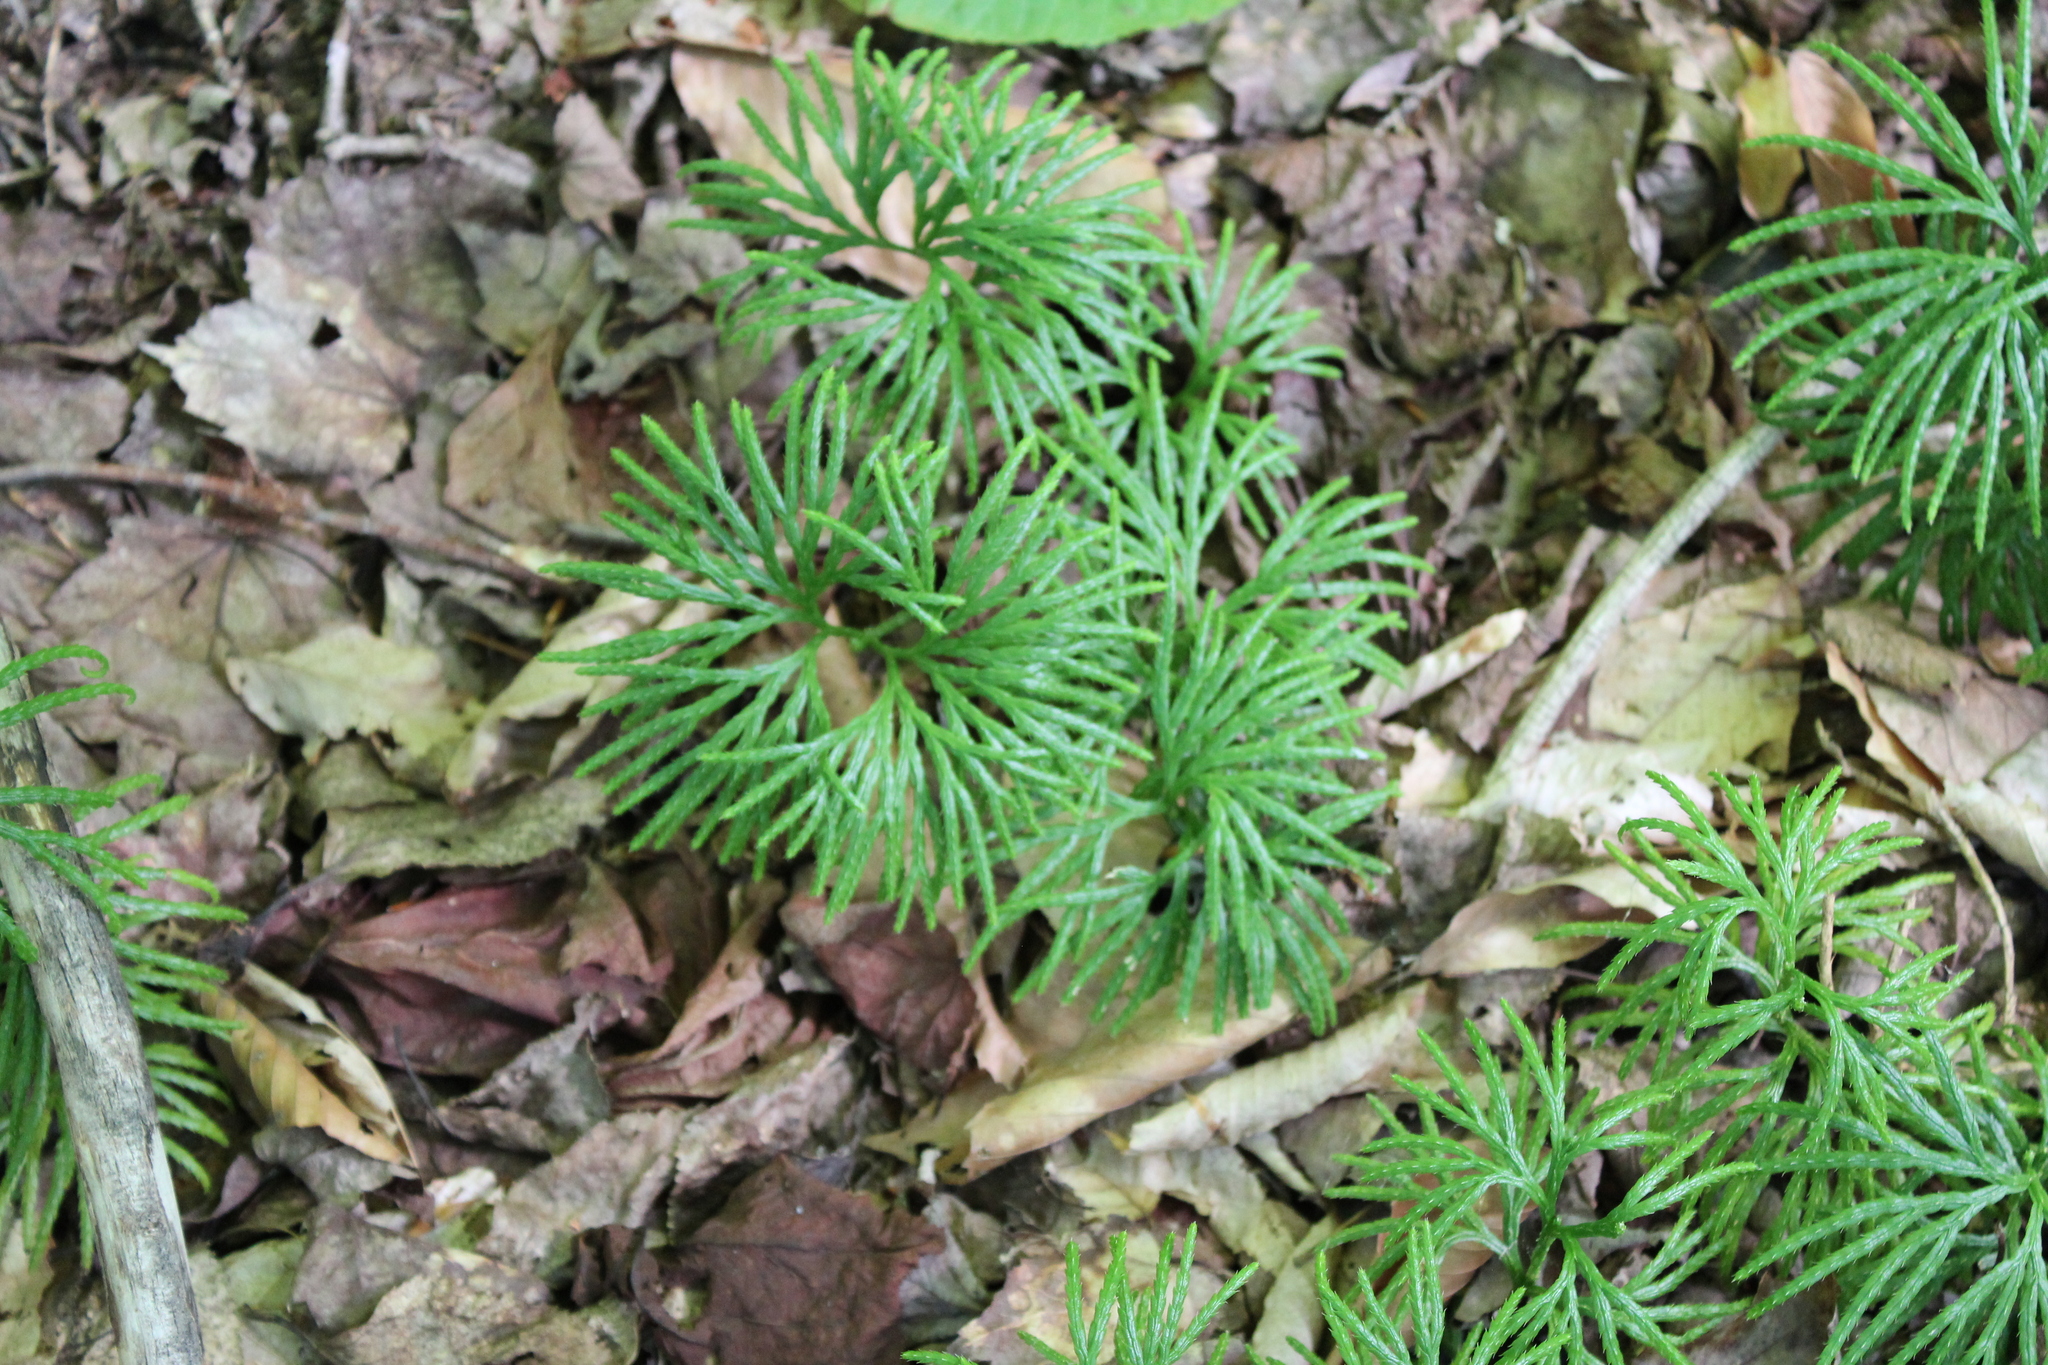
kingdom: Plantae
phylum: Tracheophyta
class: Lycopodiopsida
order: Lycopodiales
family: Lycopodiaceae
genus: Diphasiastrum
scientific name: Diphasiastrum digitatum
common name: Southern running-pine
